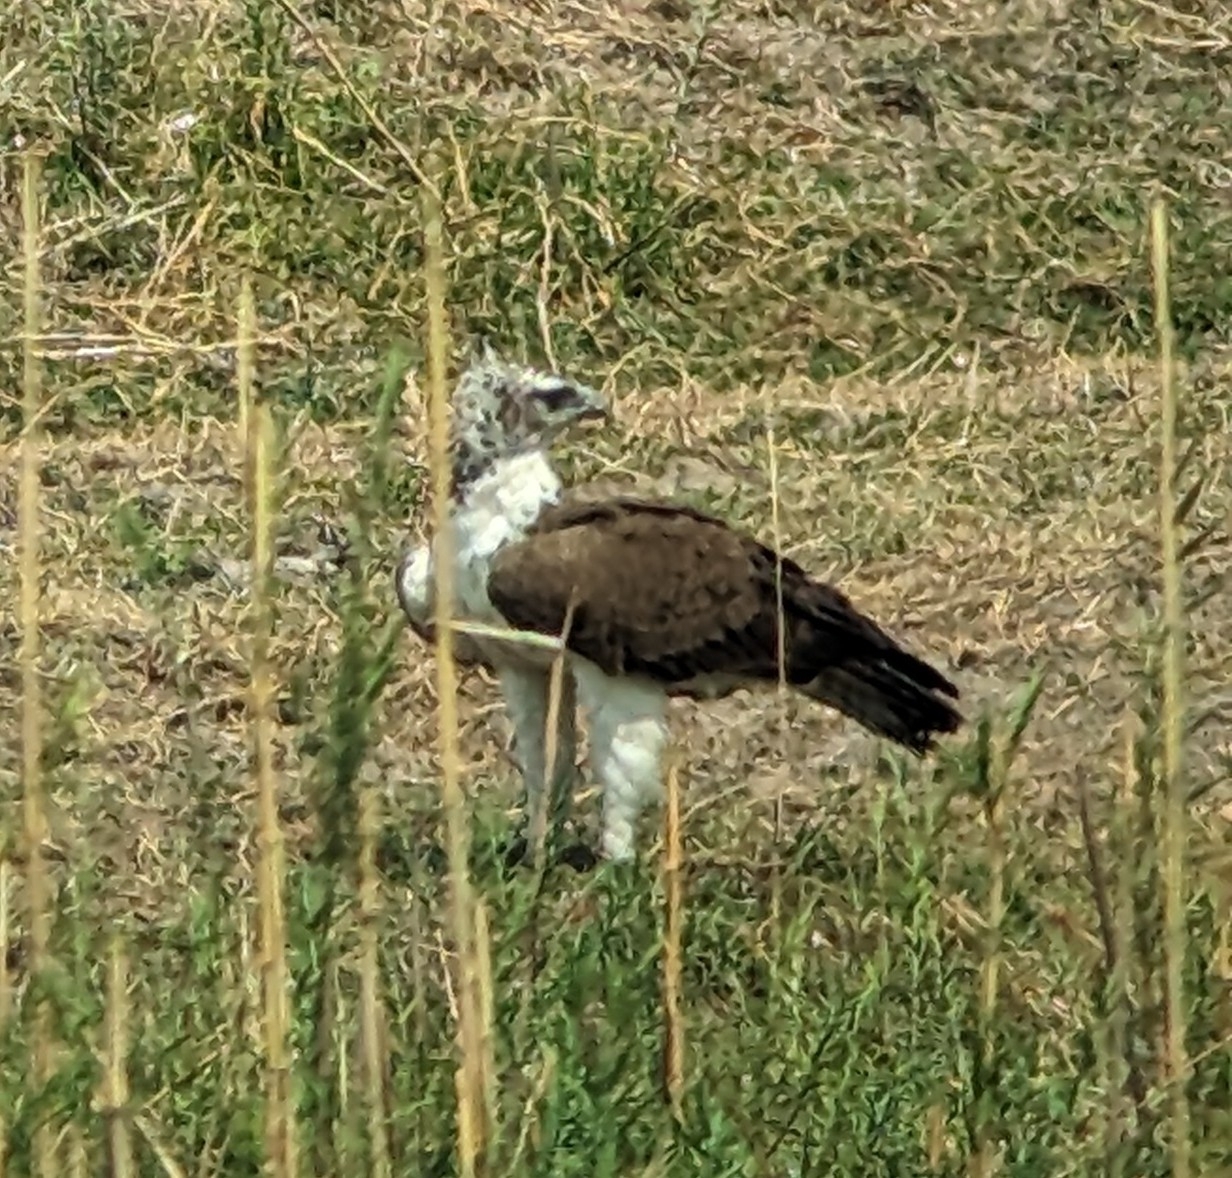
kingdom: Animalia
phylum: Chordata
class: Aves
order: Accipitriformes
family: Accipitridae
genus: Polemaetus
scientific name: Polemaetus bellicosus
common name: Martial eagle
